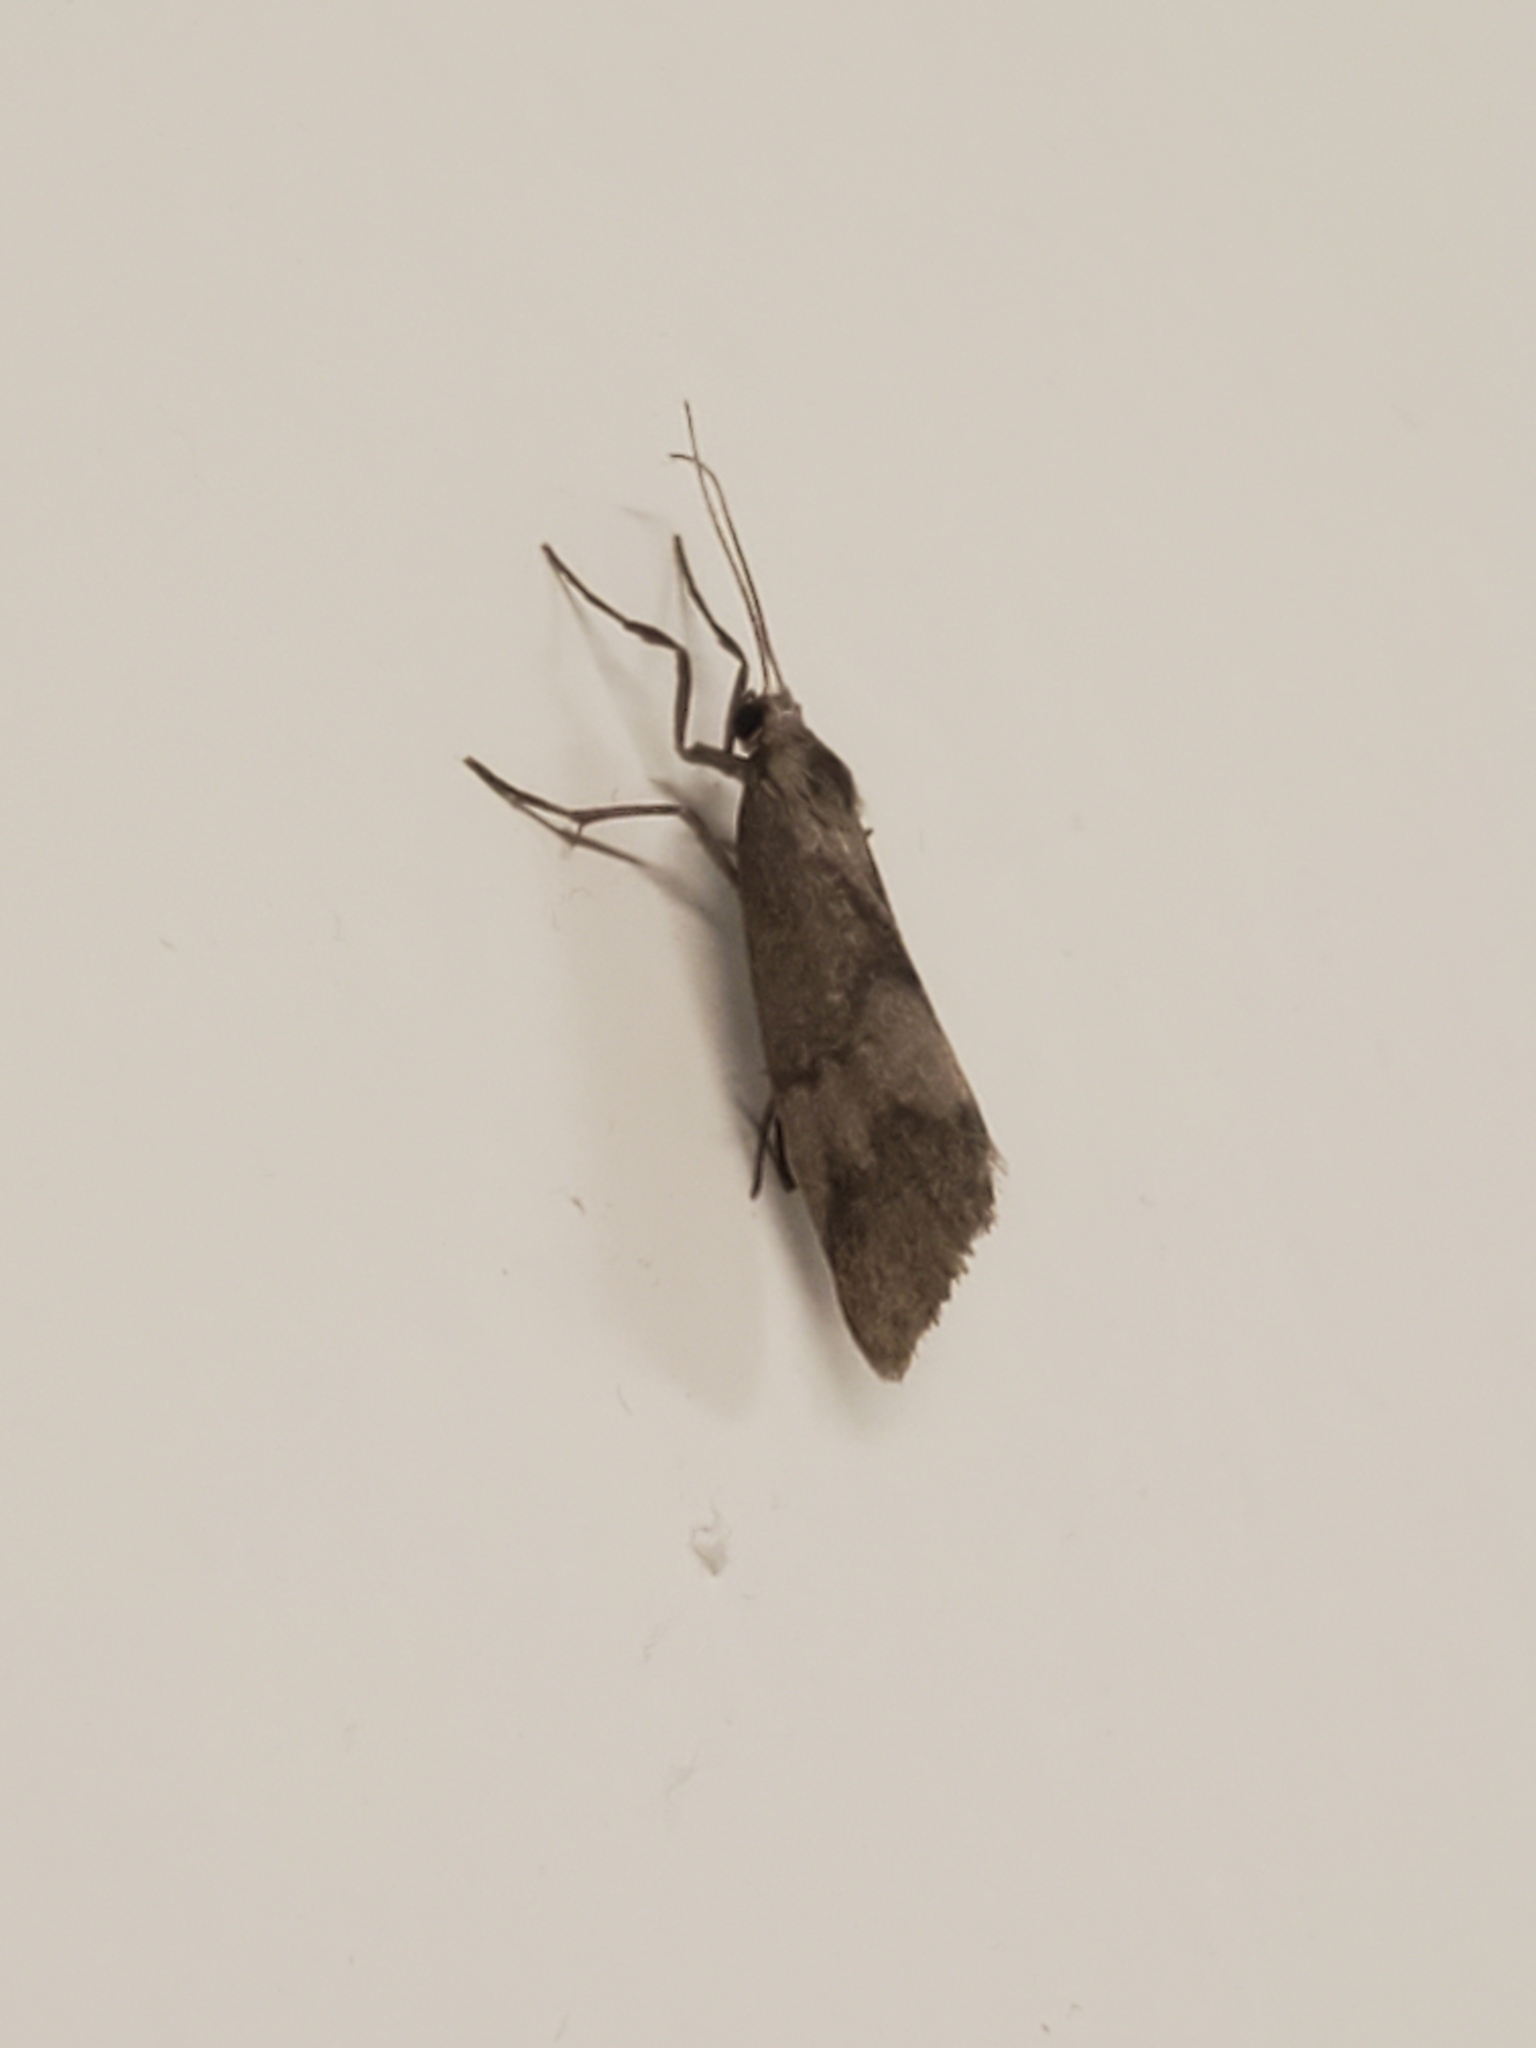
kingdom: Animalia
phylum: Arthropoda
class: Insecta
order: Lepidoptera
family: Erebidae
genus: Cisthene
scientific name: Cisthene faustinula
